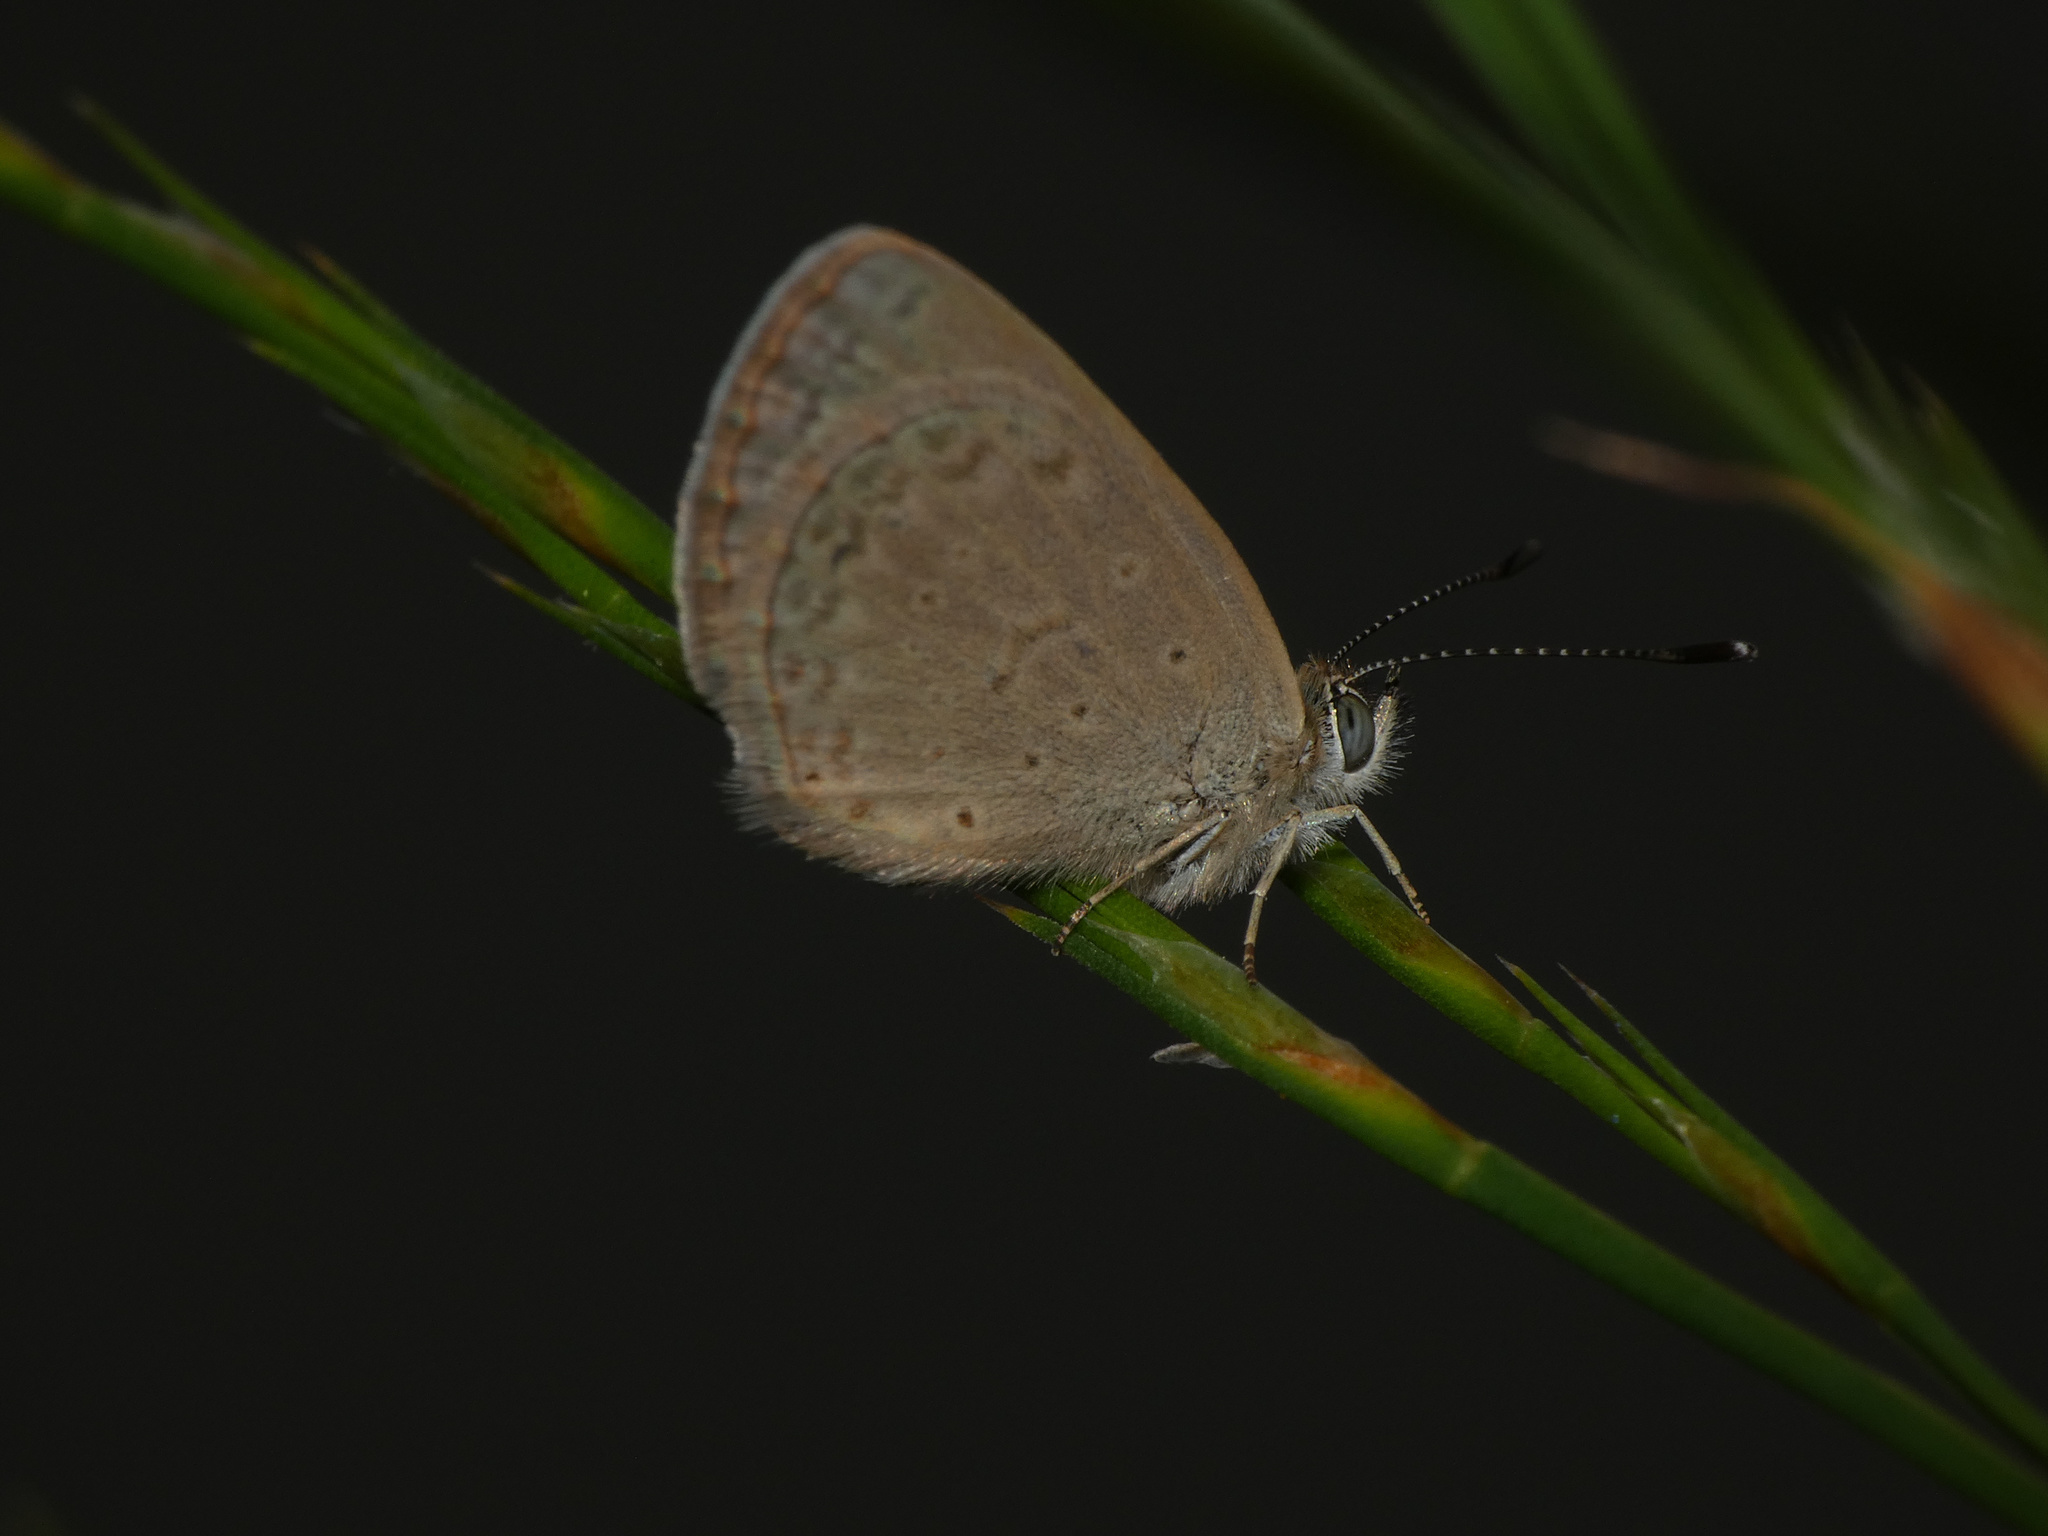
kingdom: Animalia
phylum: Arthropoda
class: Insecta
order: Lepidoptera
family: Lycaenidae
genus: Zizeeria
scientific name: Zizeeria knysna
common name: African grass blue
